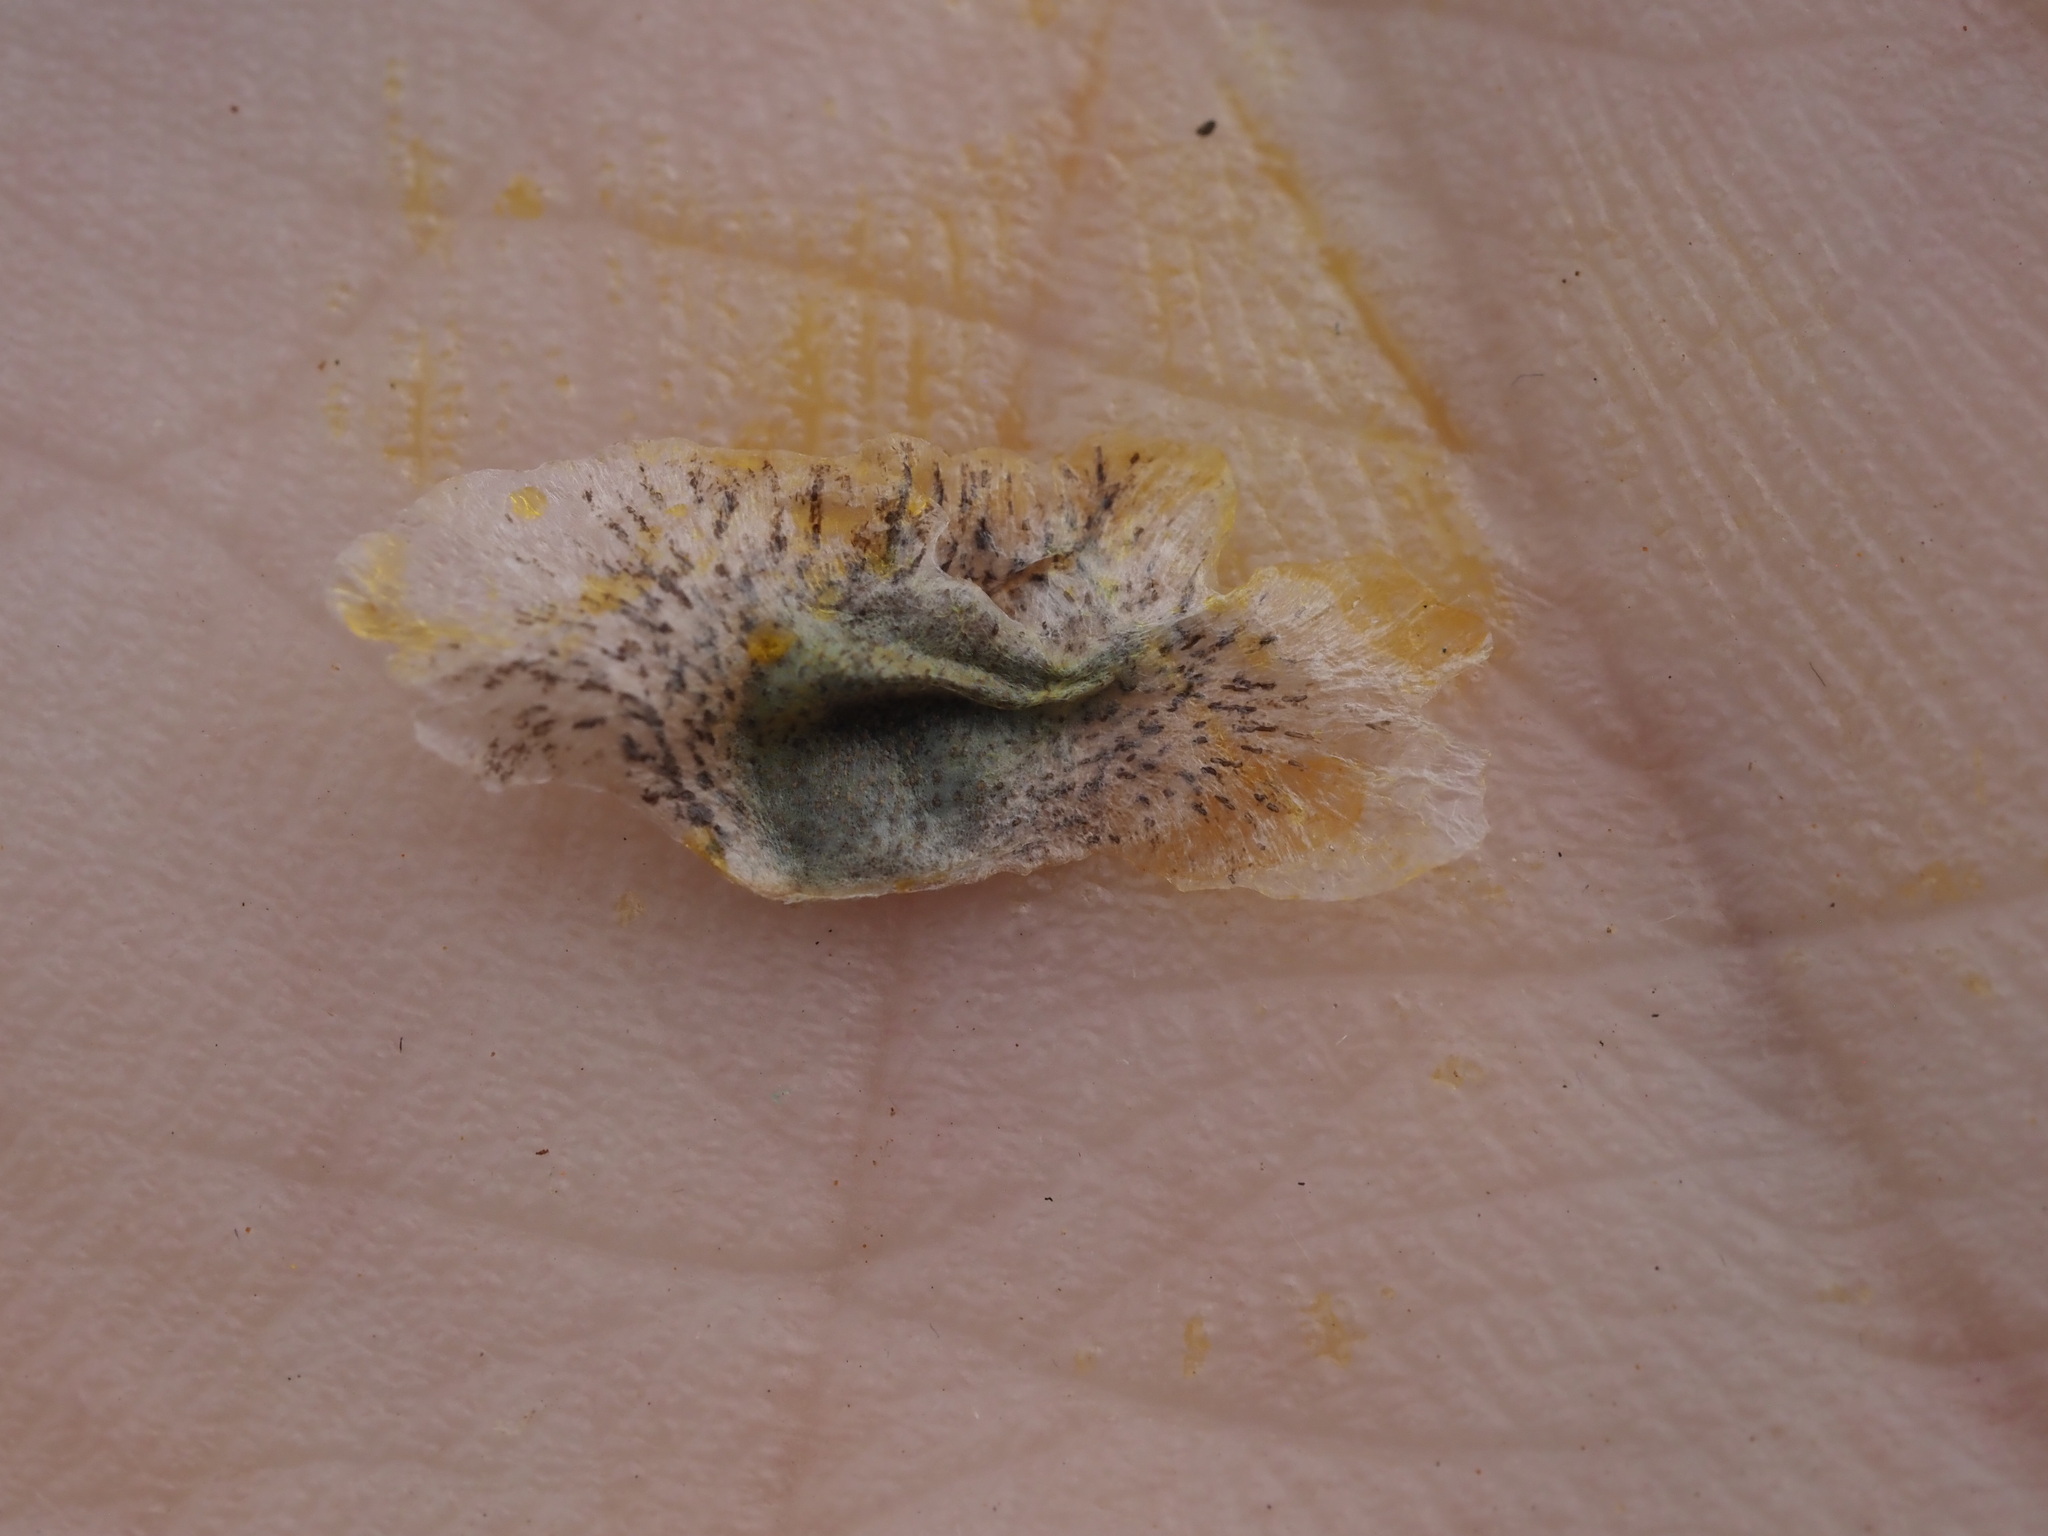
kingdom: Plantae
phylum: Tracheophyta
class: Liliopsida
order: Asparagales
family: Asphodelaceae
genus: Aloe
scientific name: Aloe littoralis
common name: Luanda tree aloe
